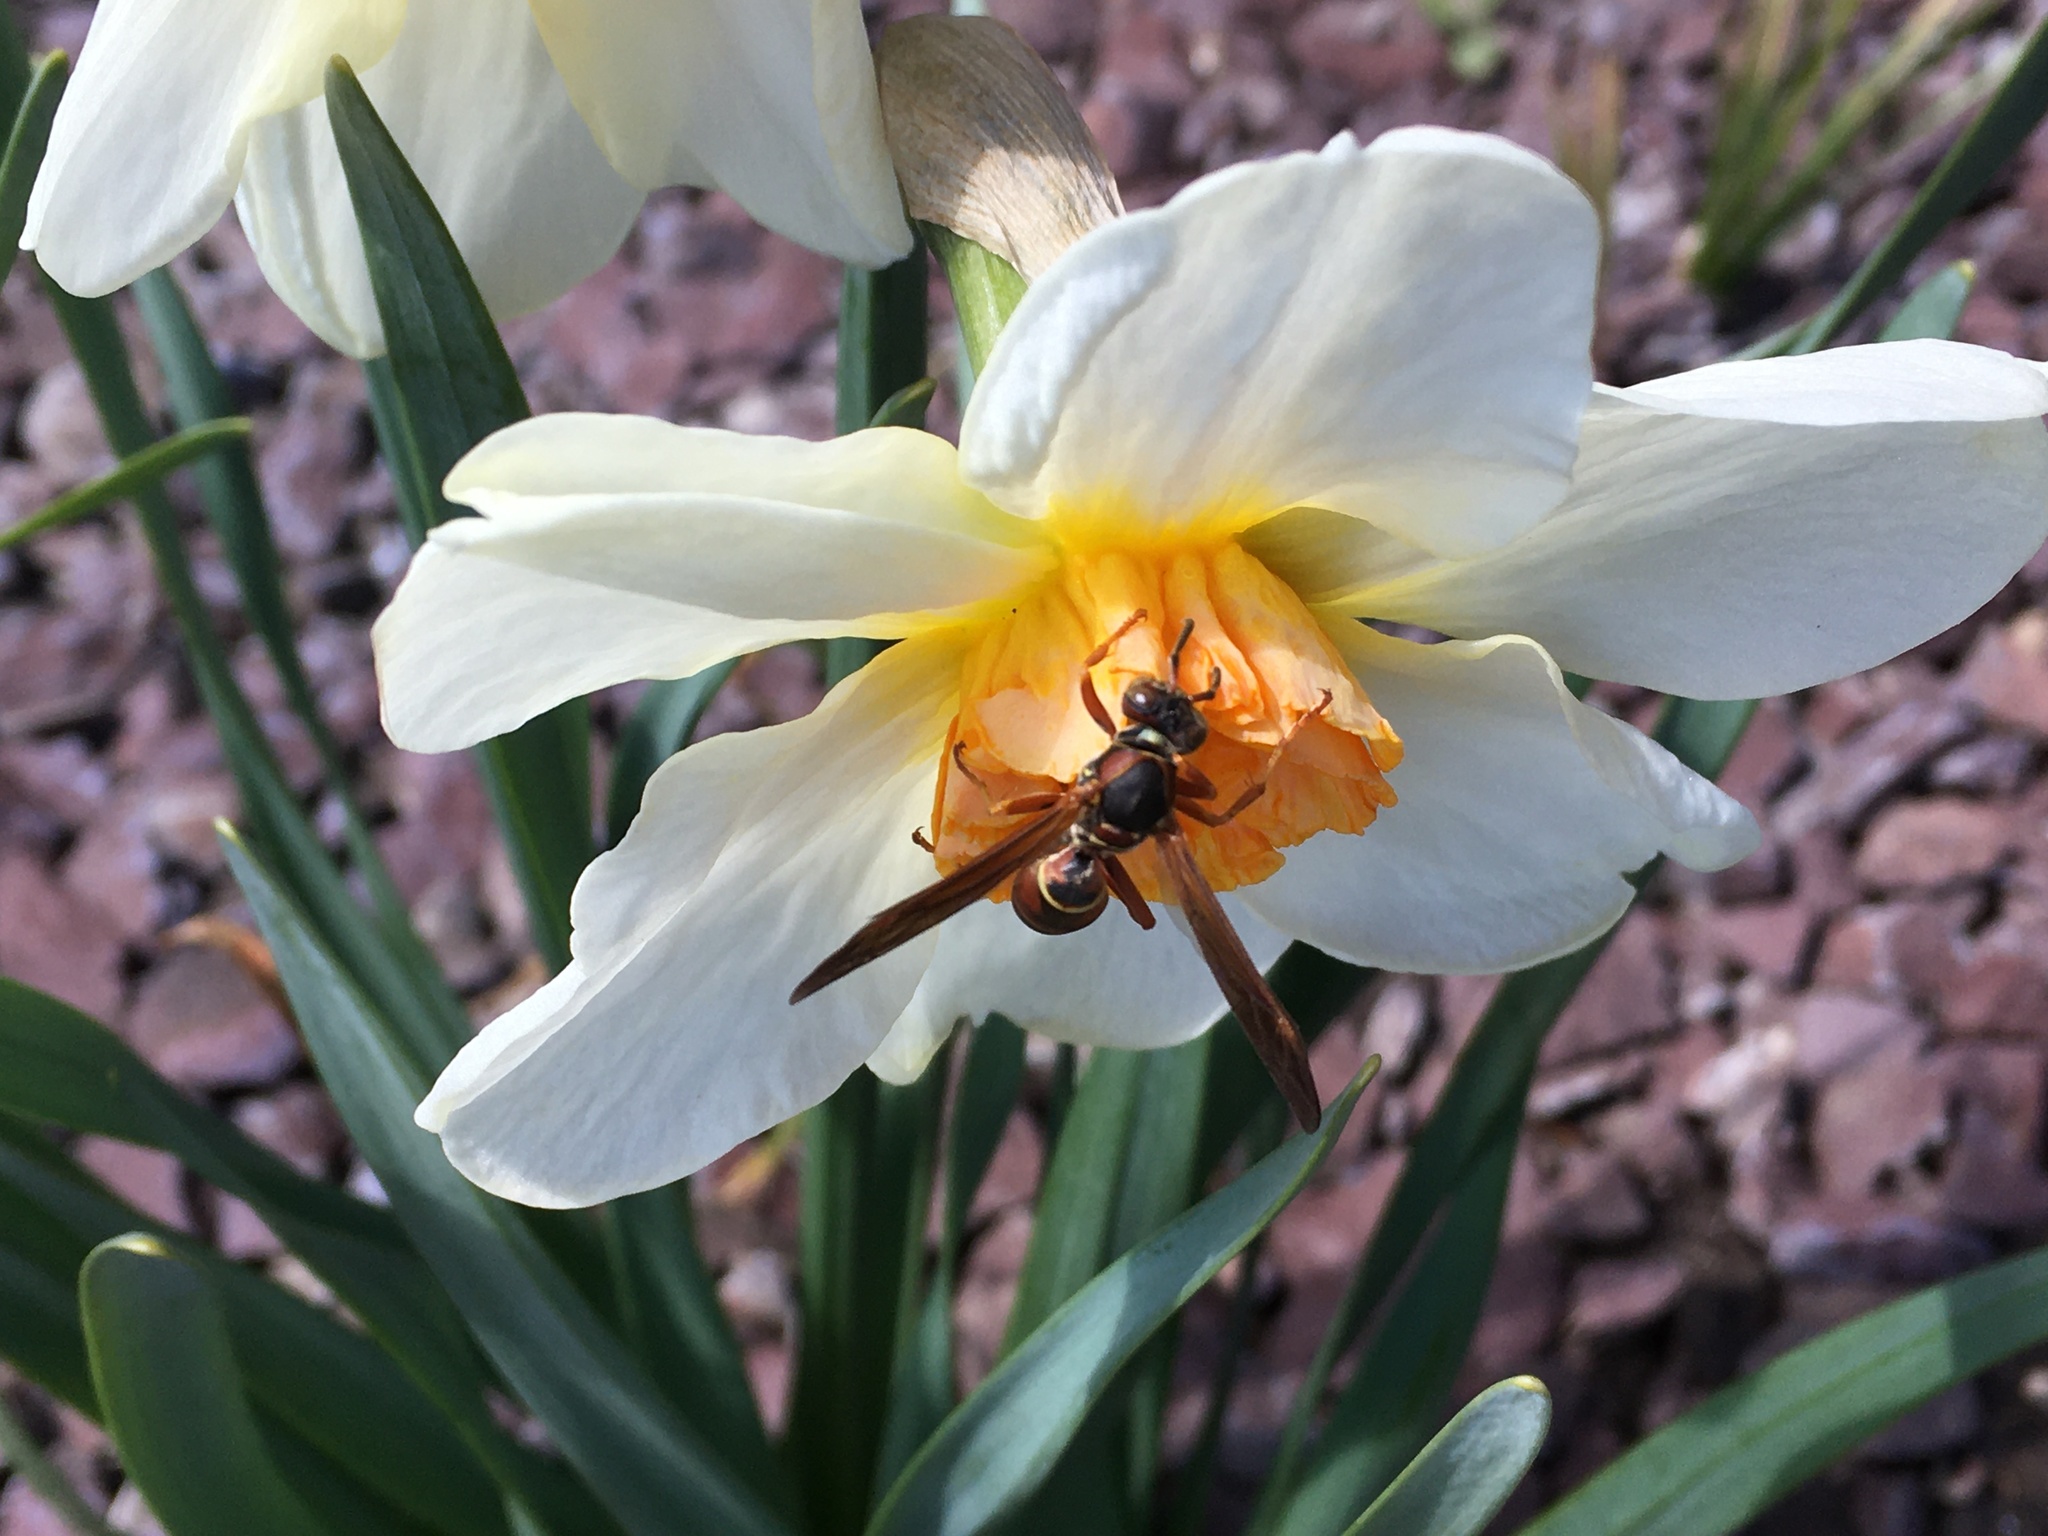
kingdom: Animalia
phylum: Arthropoda
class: Insecta
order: Hymenoptera
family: Eumenidae
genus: Polistes
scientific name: Polistes fuscatus
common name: Dark paper wasp
